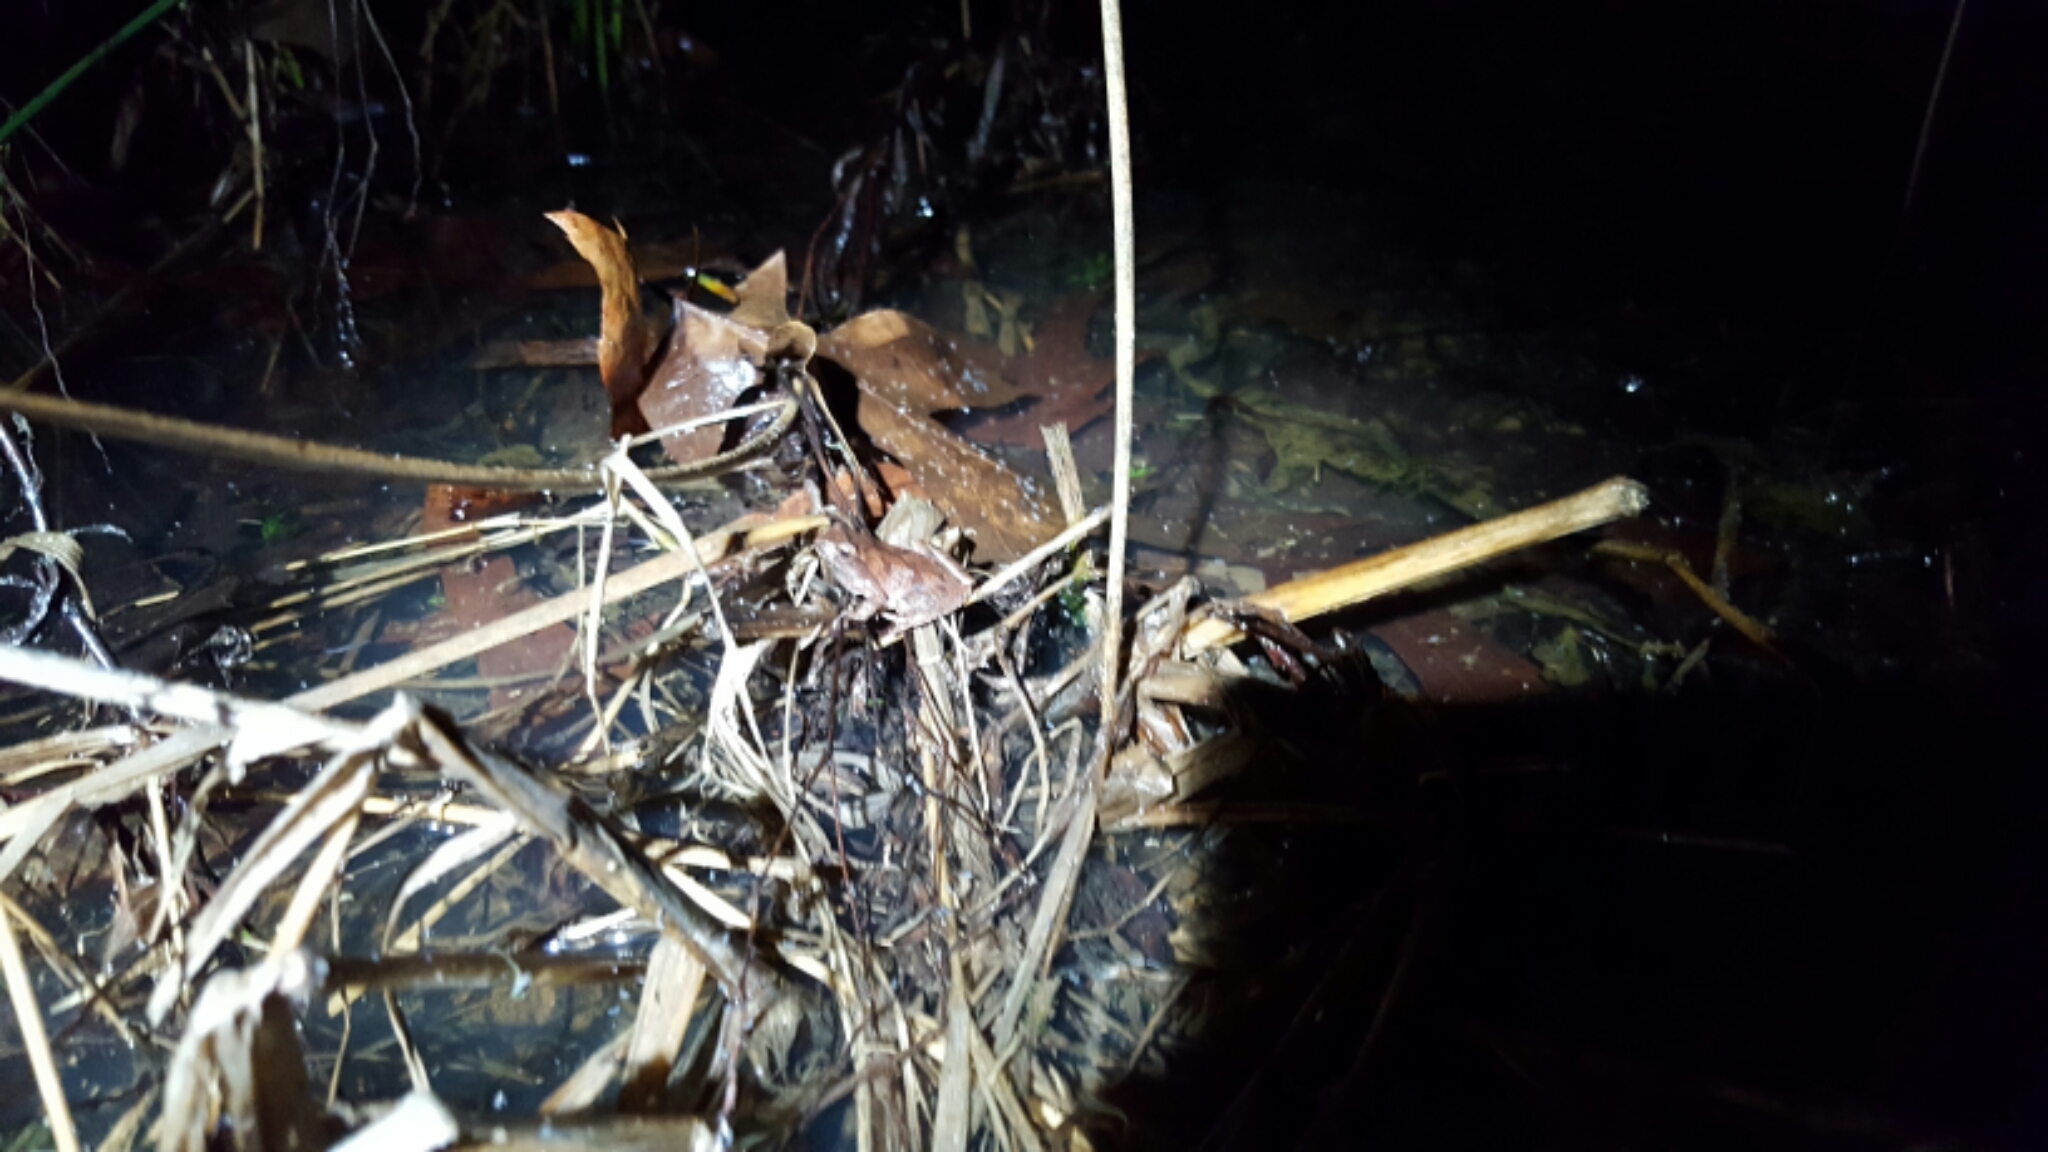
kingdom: Animalia
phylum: Chordata
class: Amphibia
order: Anura
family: Hylidae
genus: Pseudacris
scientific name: Pseudacris crucifer
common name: Spring peeper
